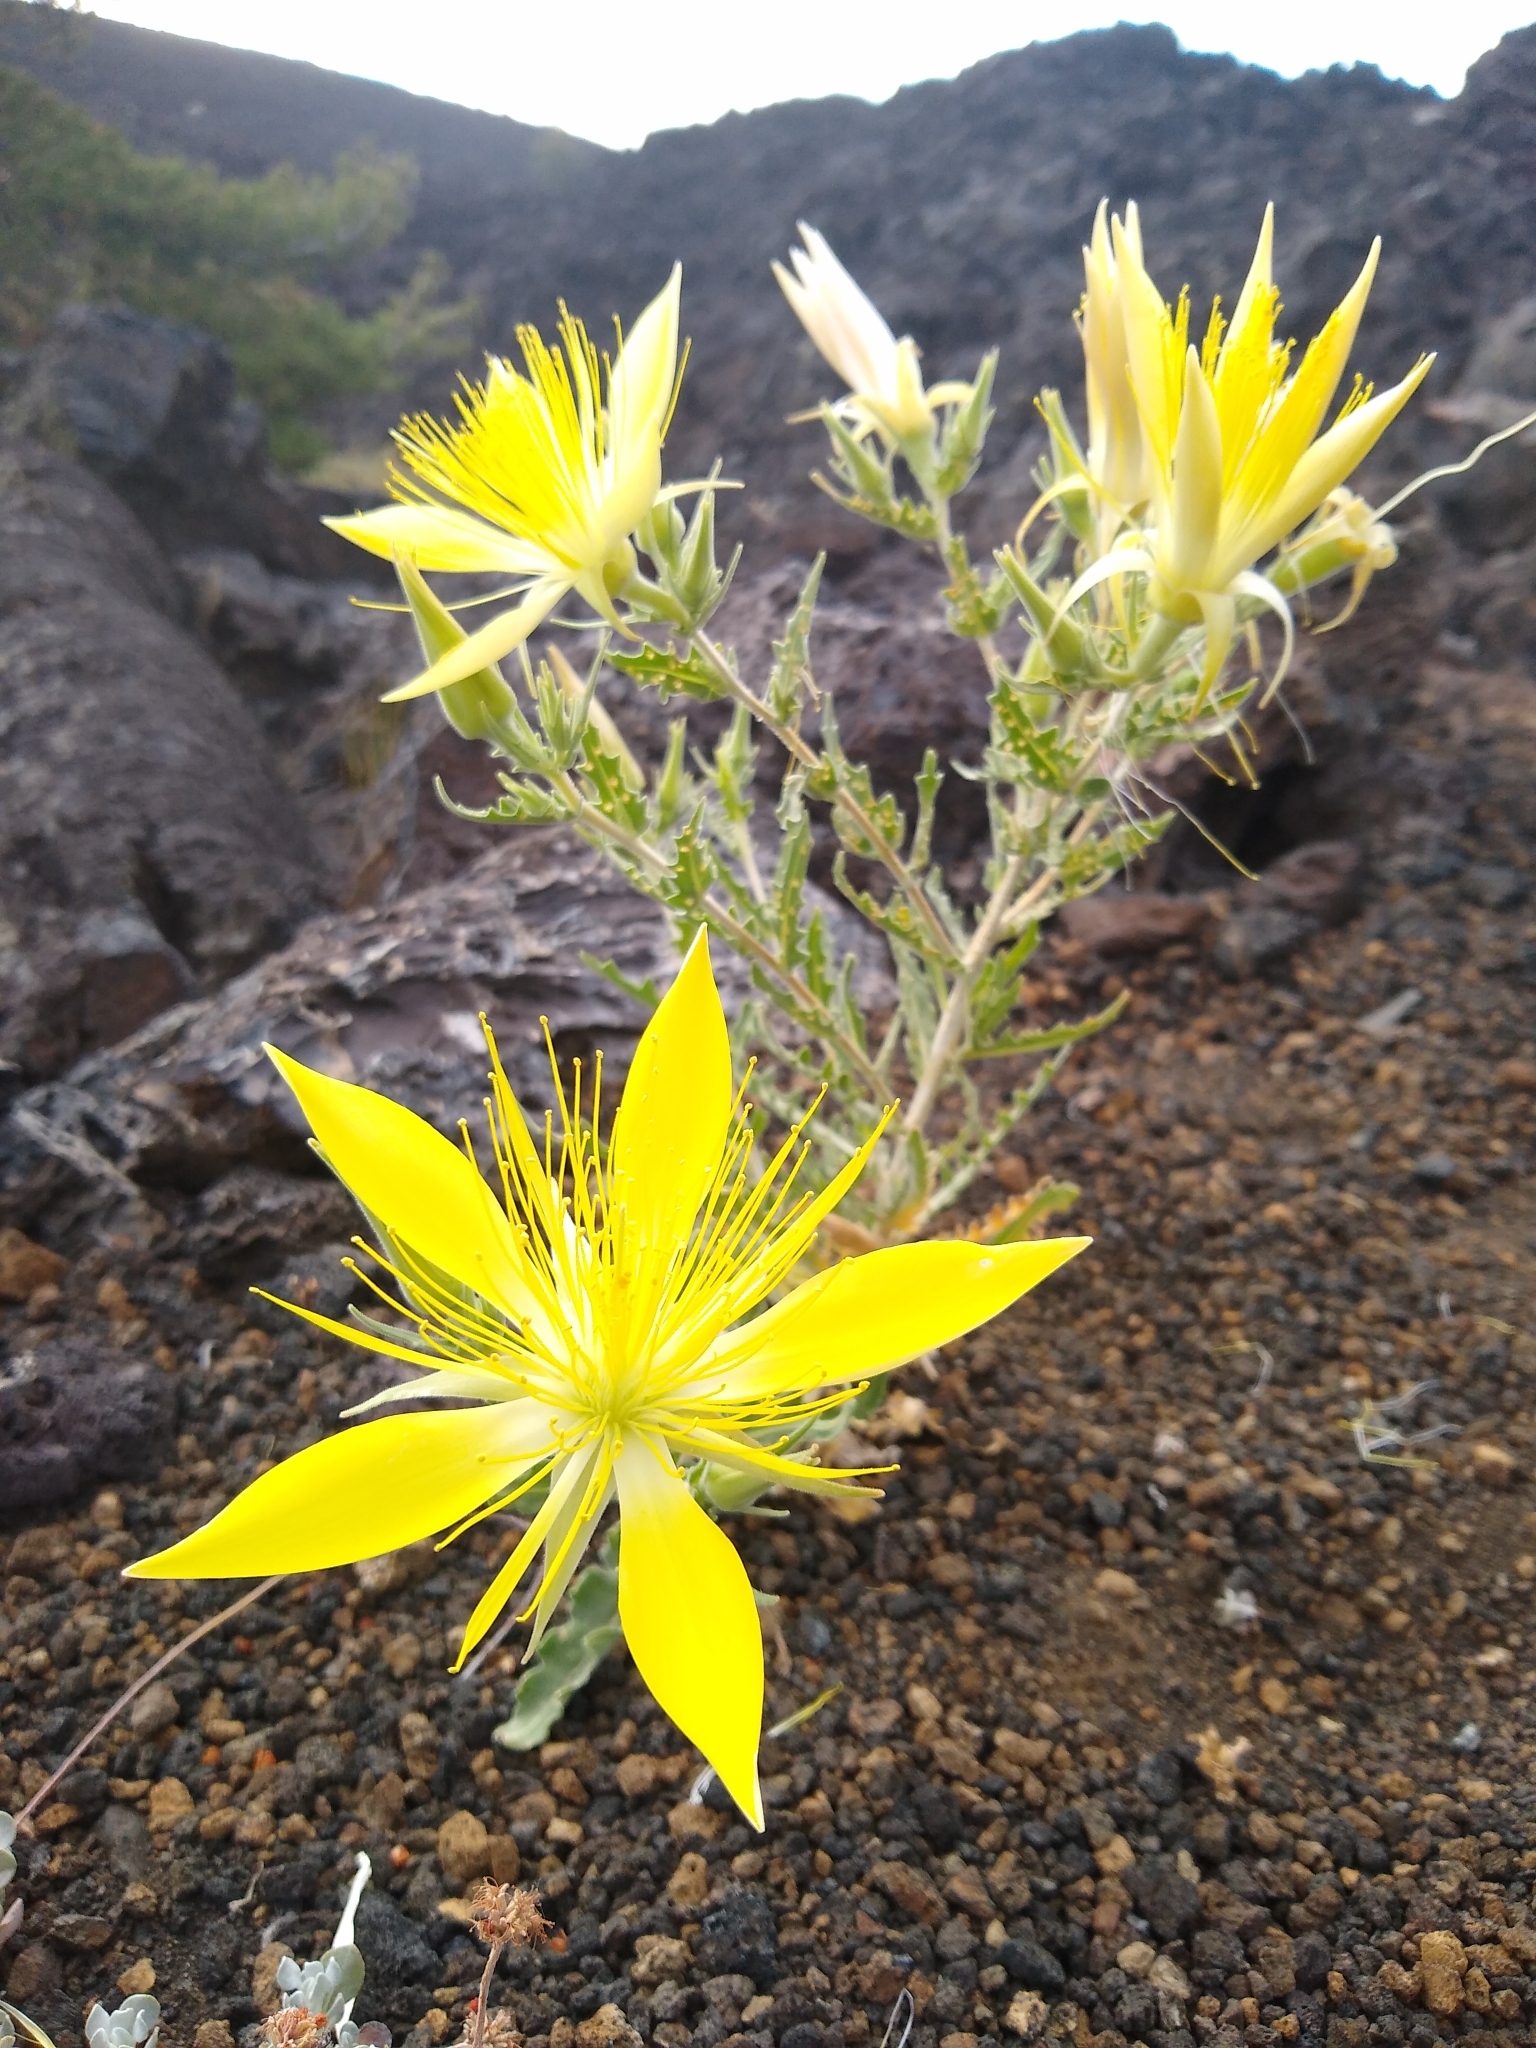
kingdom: Plantae
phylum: Tracheophyta
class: Magnoliopsida
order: Cornales
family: Loasaceae
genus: Mentzelia
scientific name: Mentzelia laevicaulis
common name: Smooth-stem blazingstar
